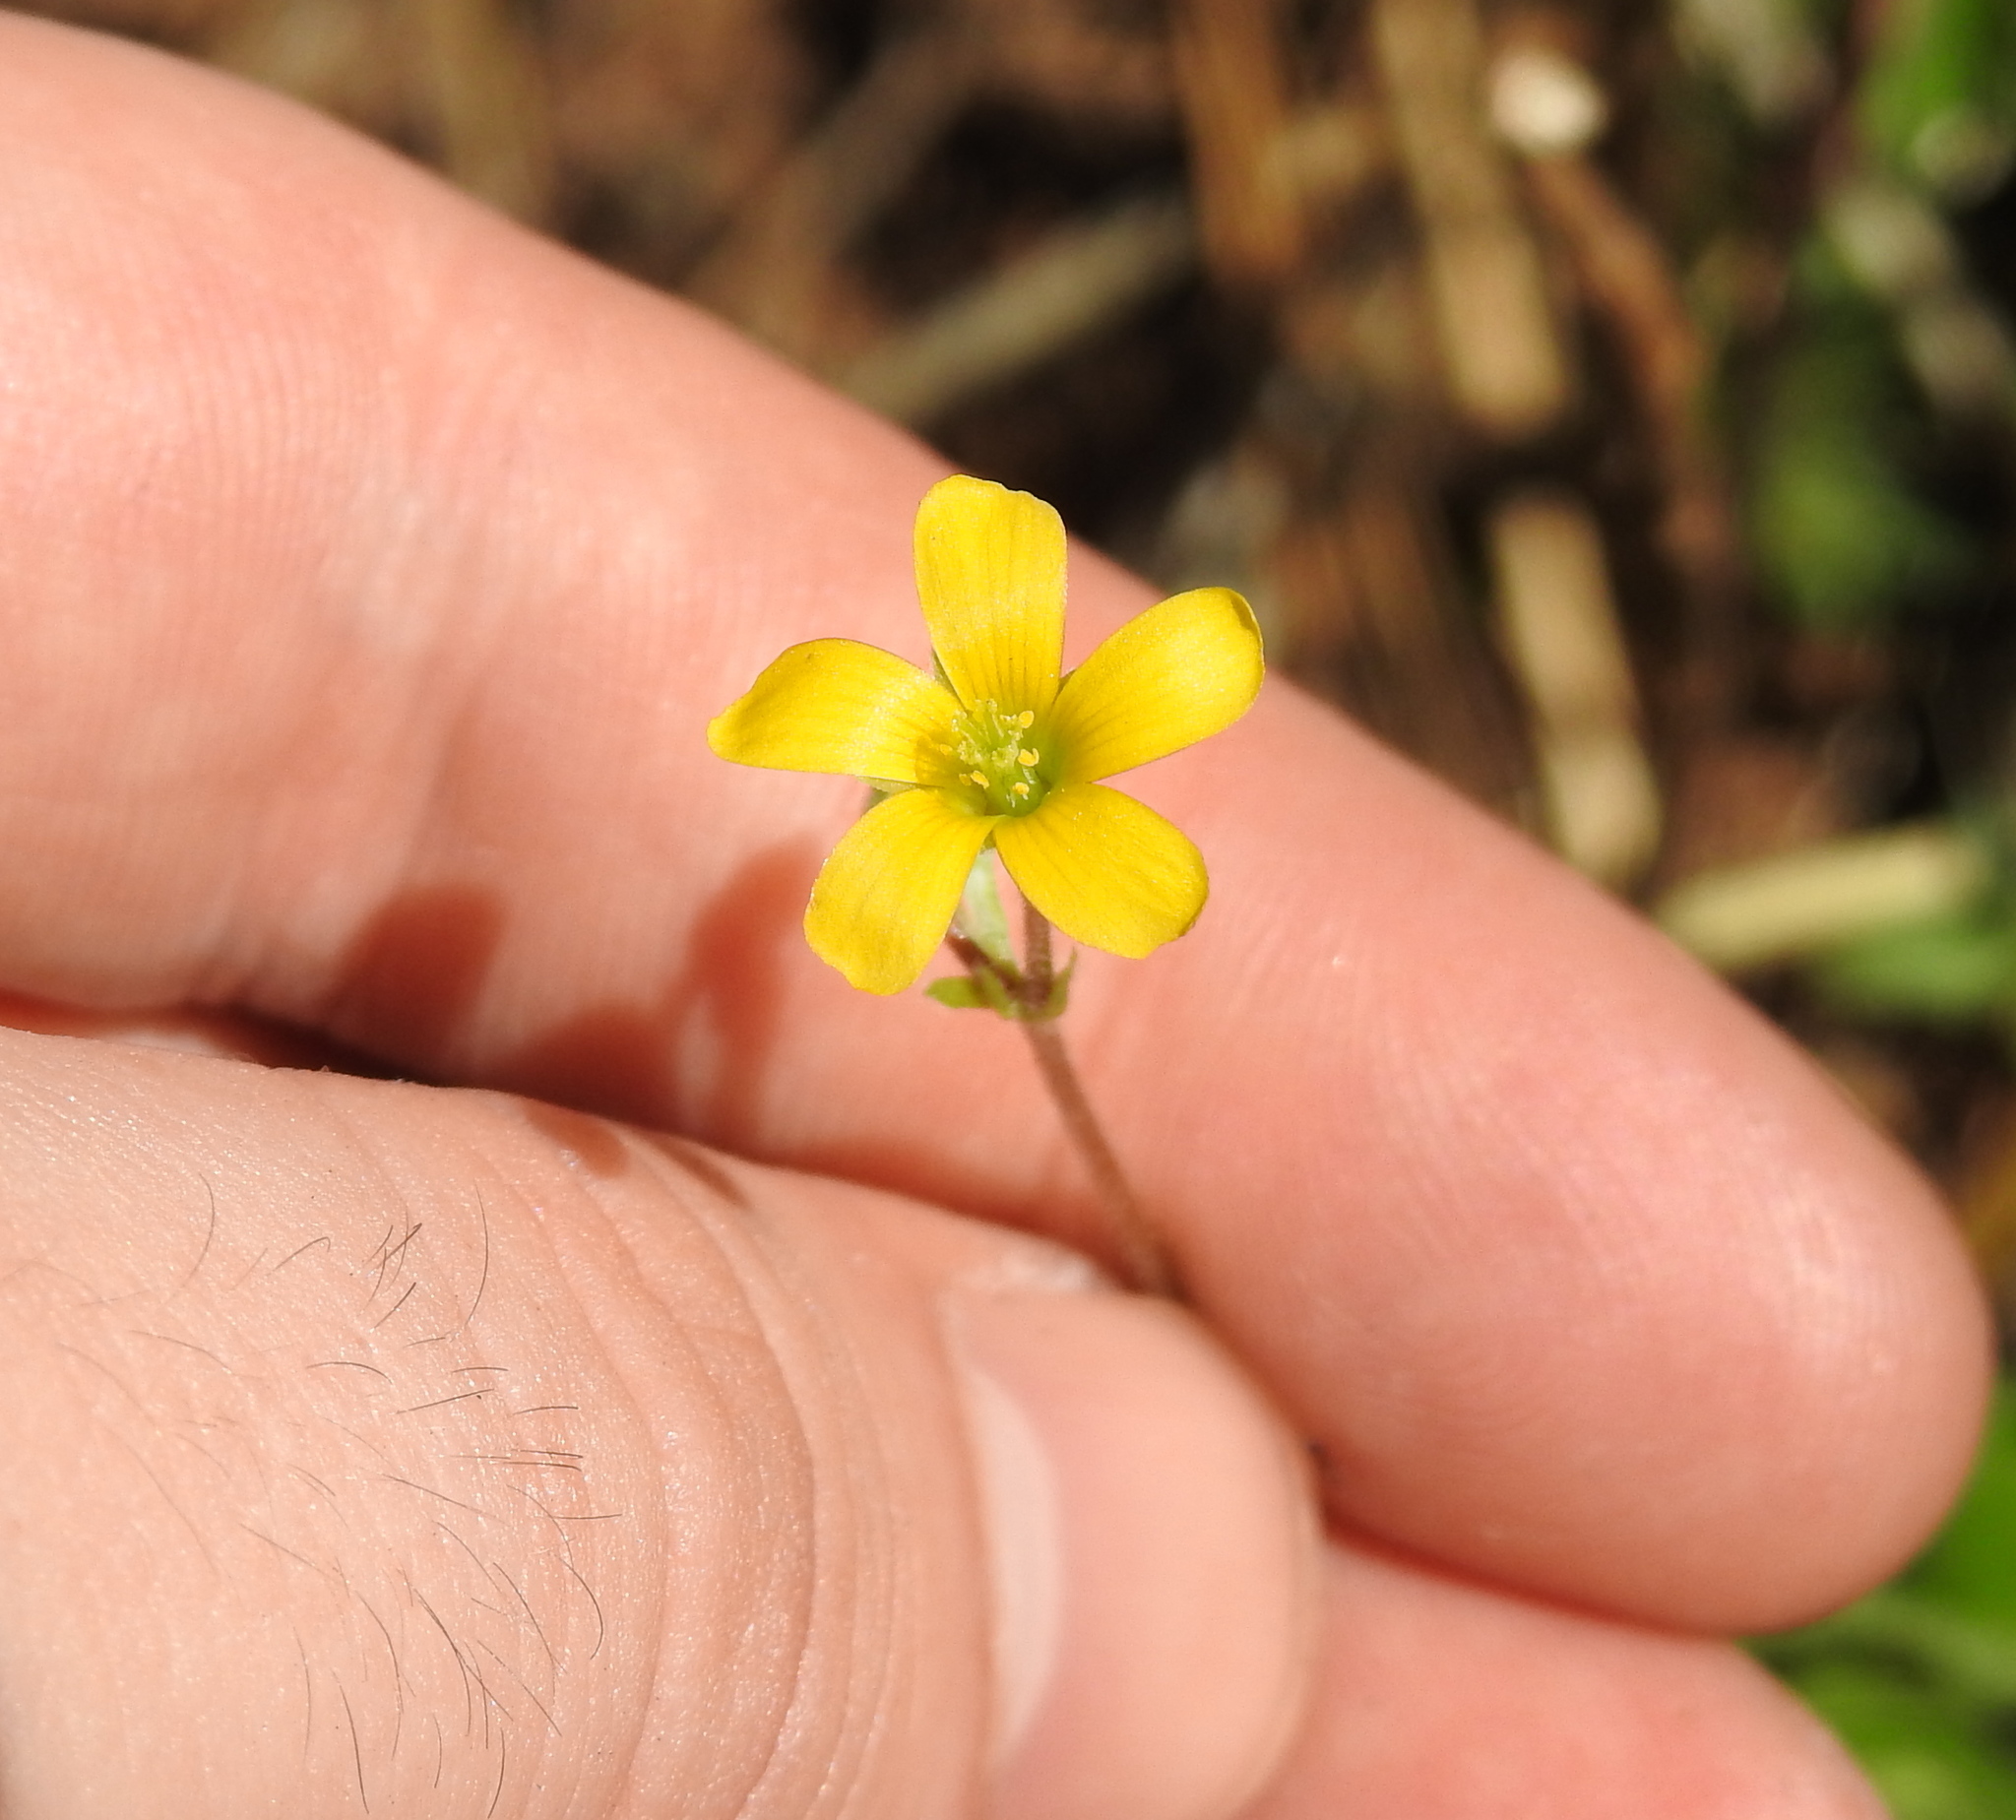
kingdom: Plantae
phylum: Tracheophyta
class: Magnoliopsida
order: Oxalidales
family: Oxalidaceae
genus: Oxalis
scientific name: Oxalis corniculata
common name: Procumbent yellow-sorrel
